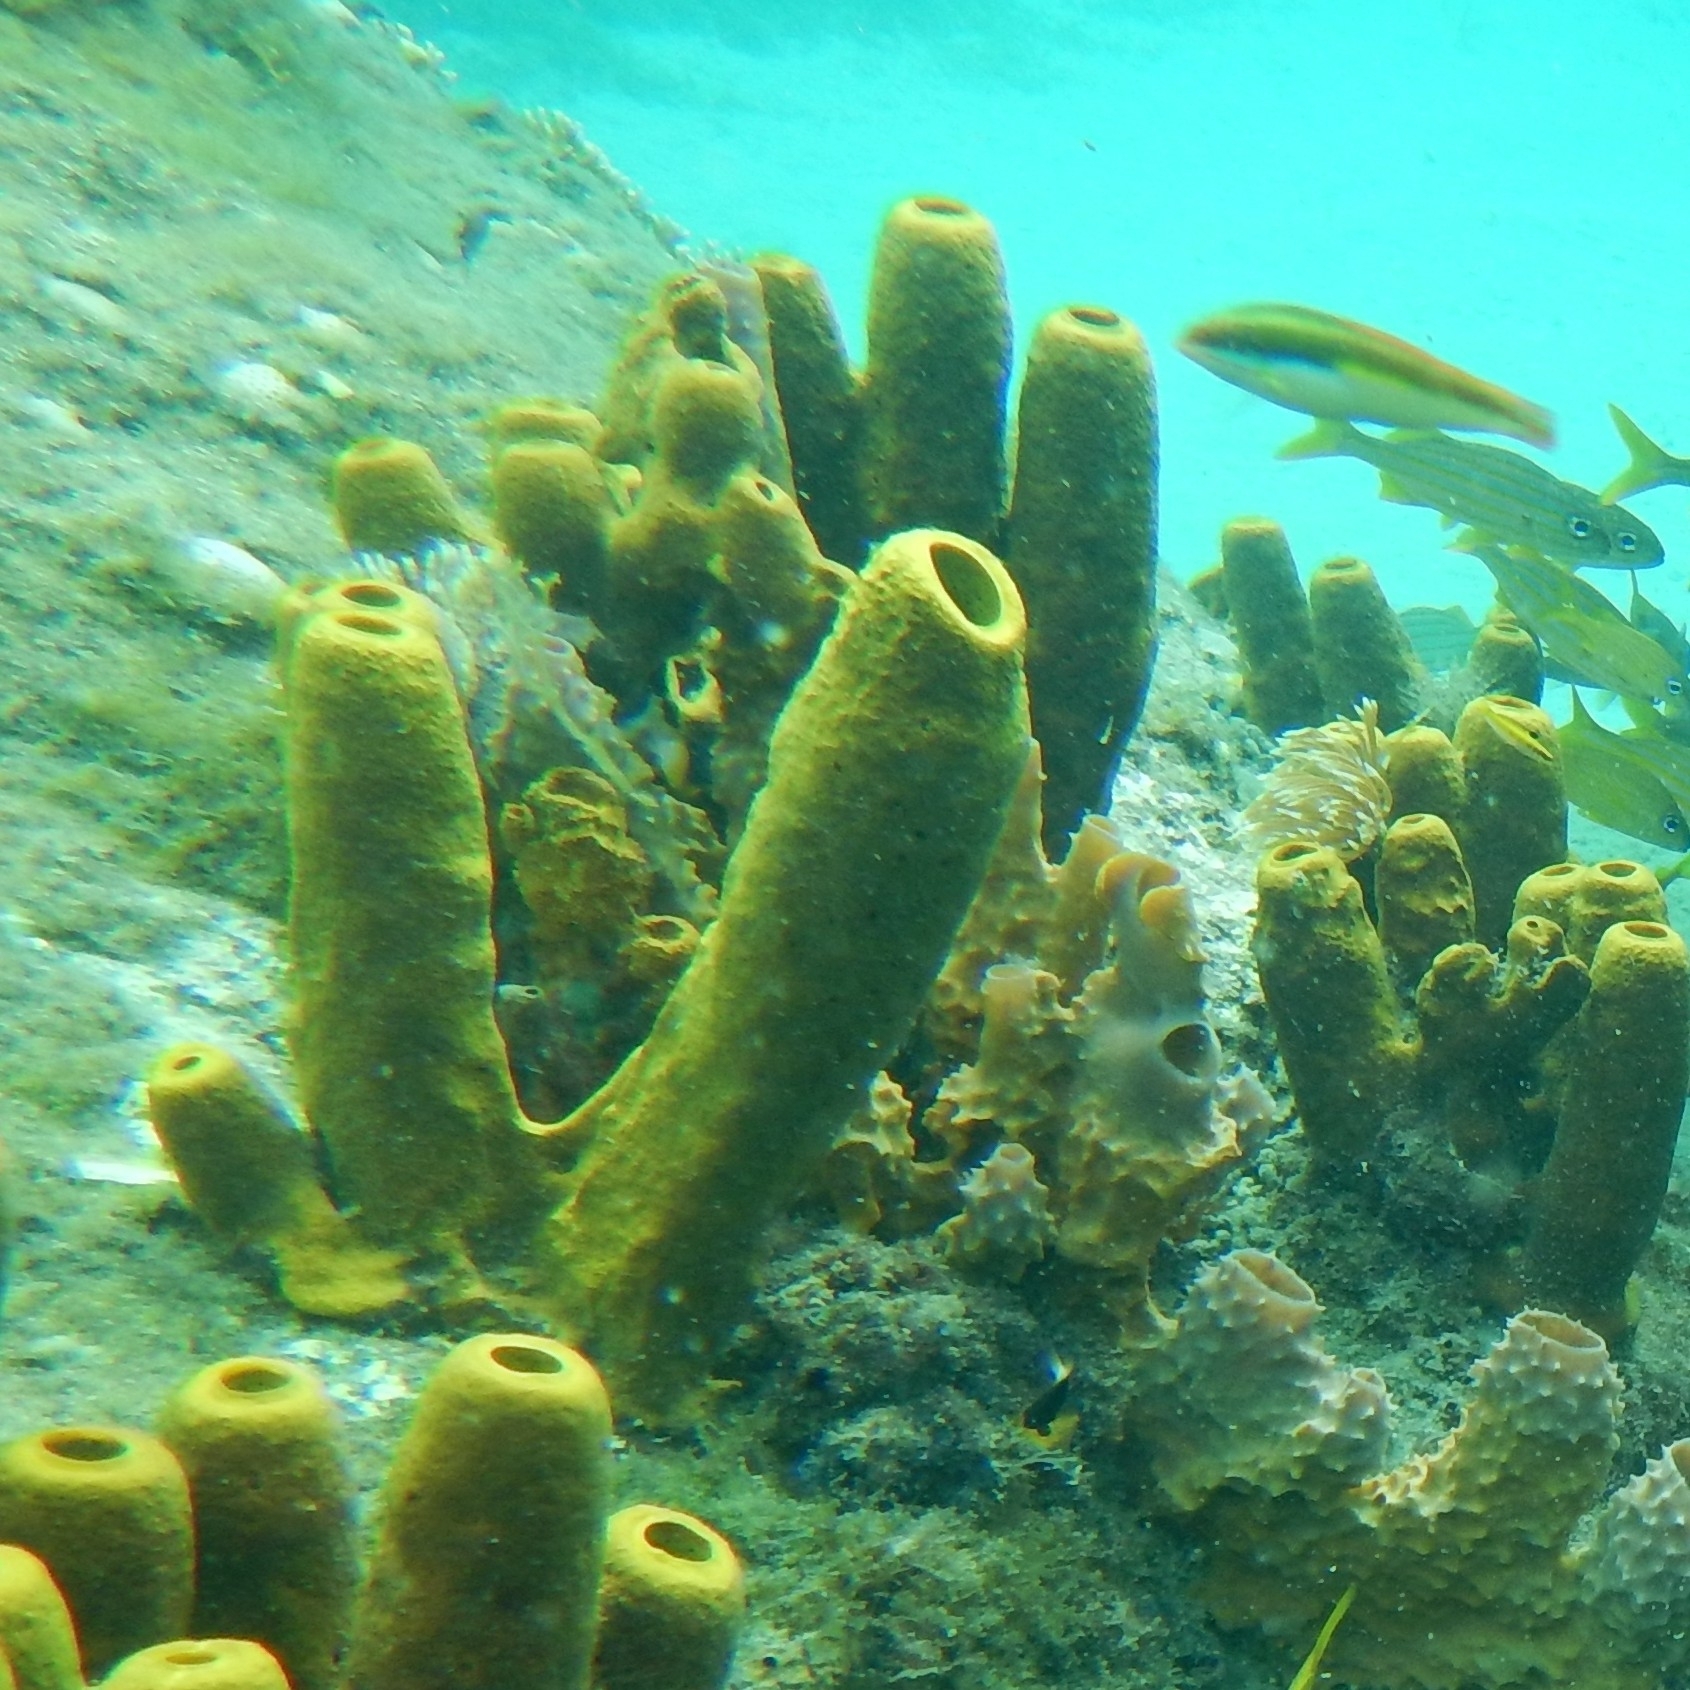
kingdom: Animalia
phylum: Porifera
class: Demospongiae
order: Verongiida
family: Aplysinidae
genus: Aplysina
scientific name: Aplysina fistularis
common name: Candle sponge
